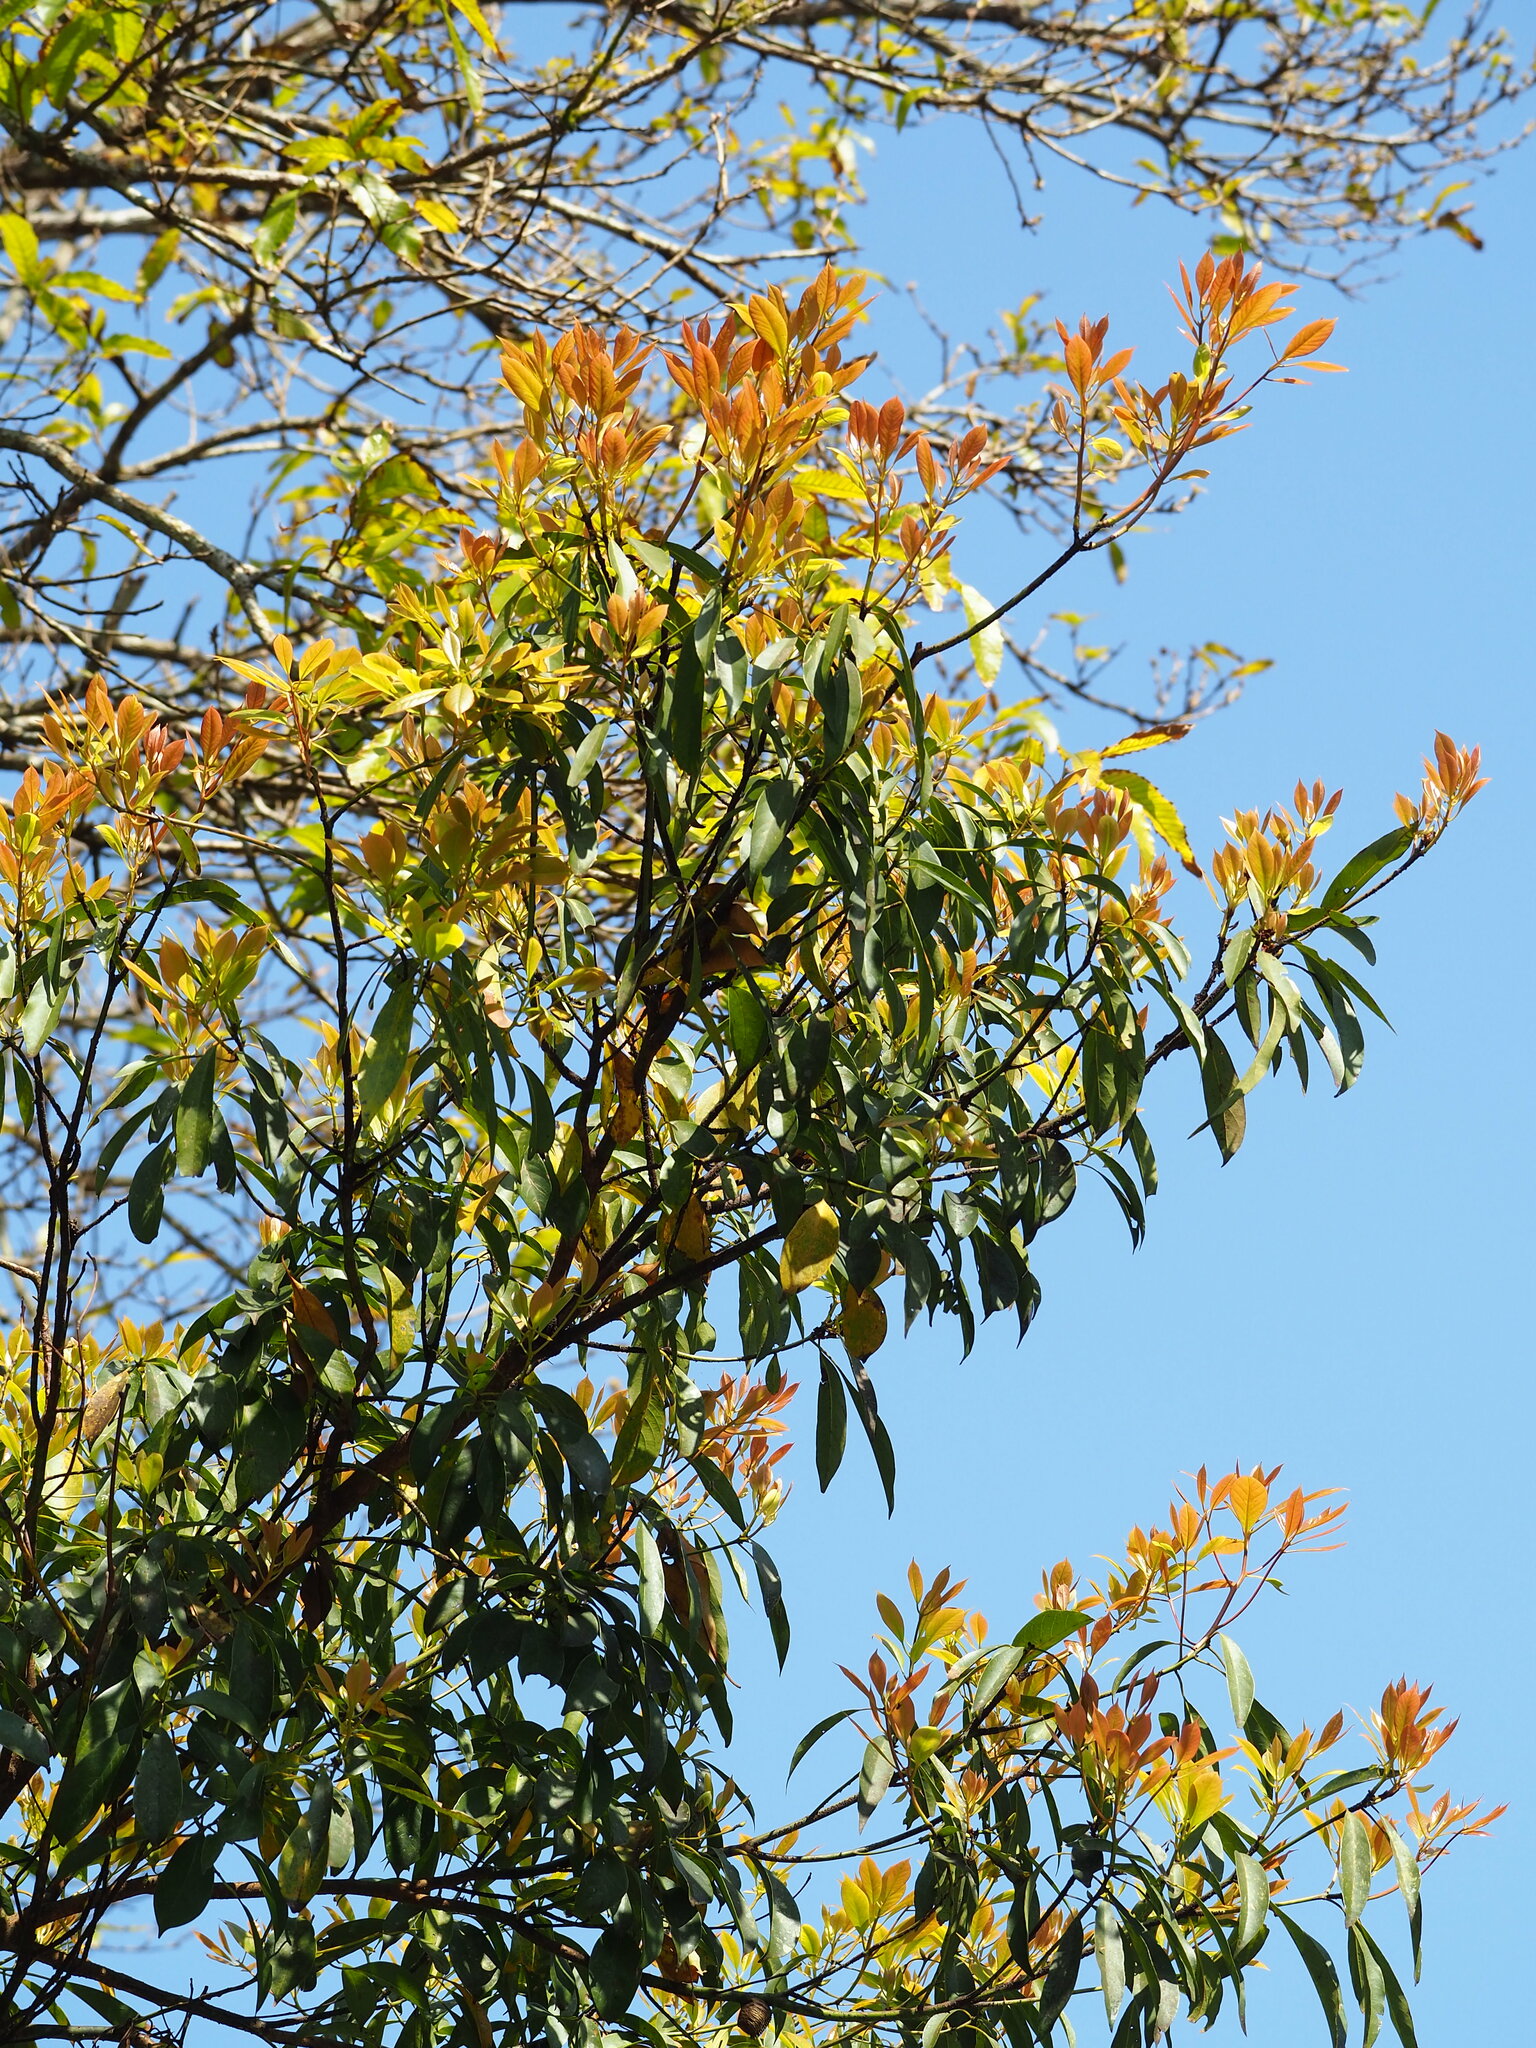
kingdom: Plantae
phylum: Tracheophyta
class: Magnoliopsida
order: Laurales
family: Lauraceae
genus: Machilus
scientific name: Machilus thunbergii
